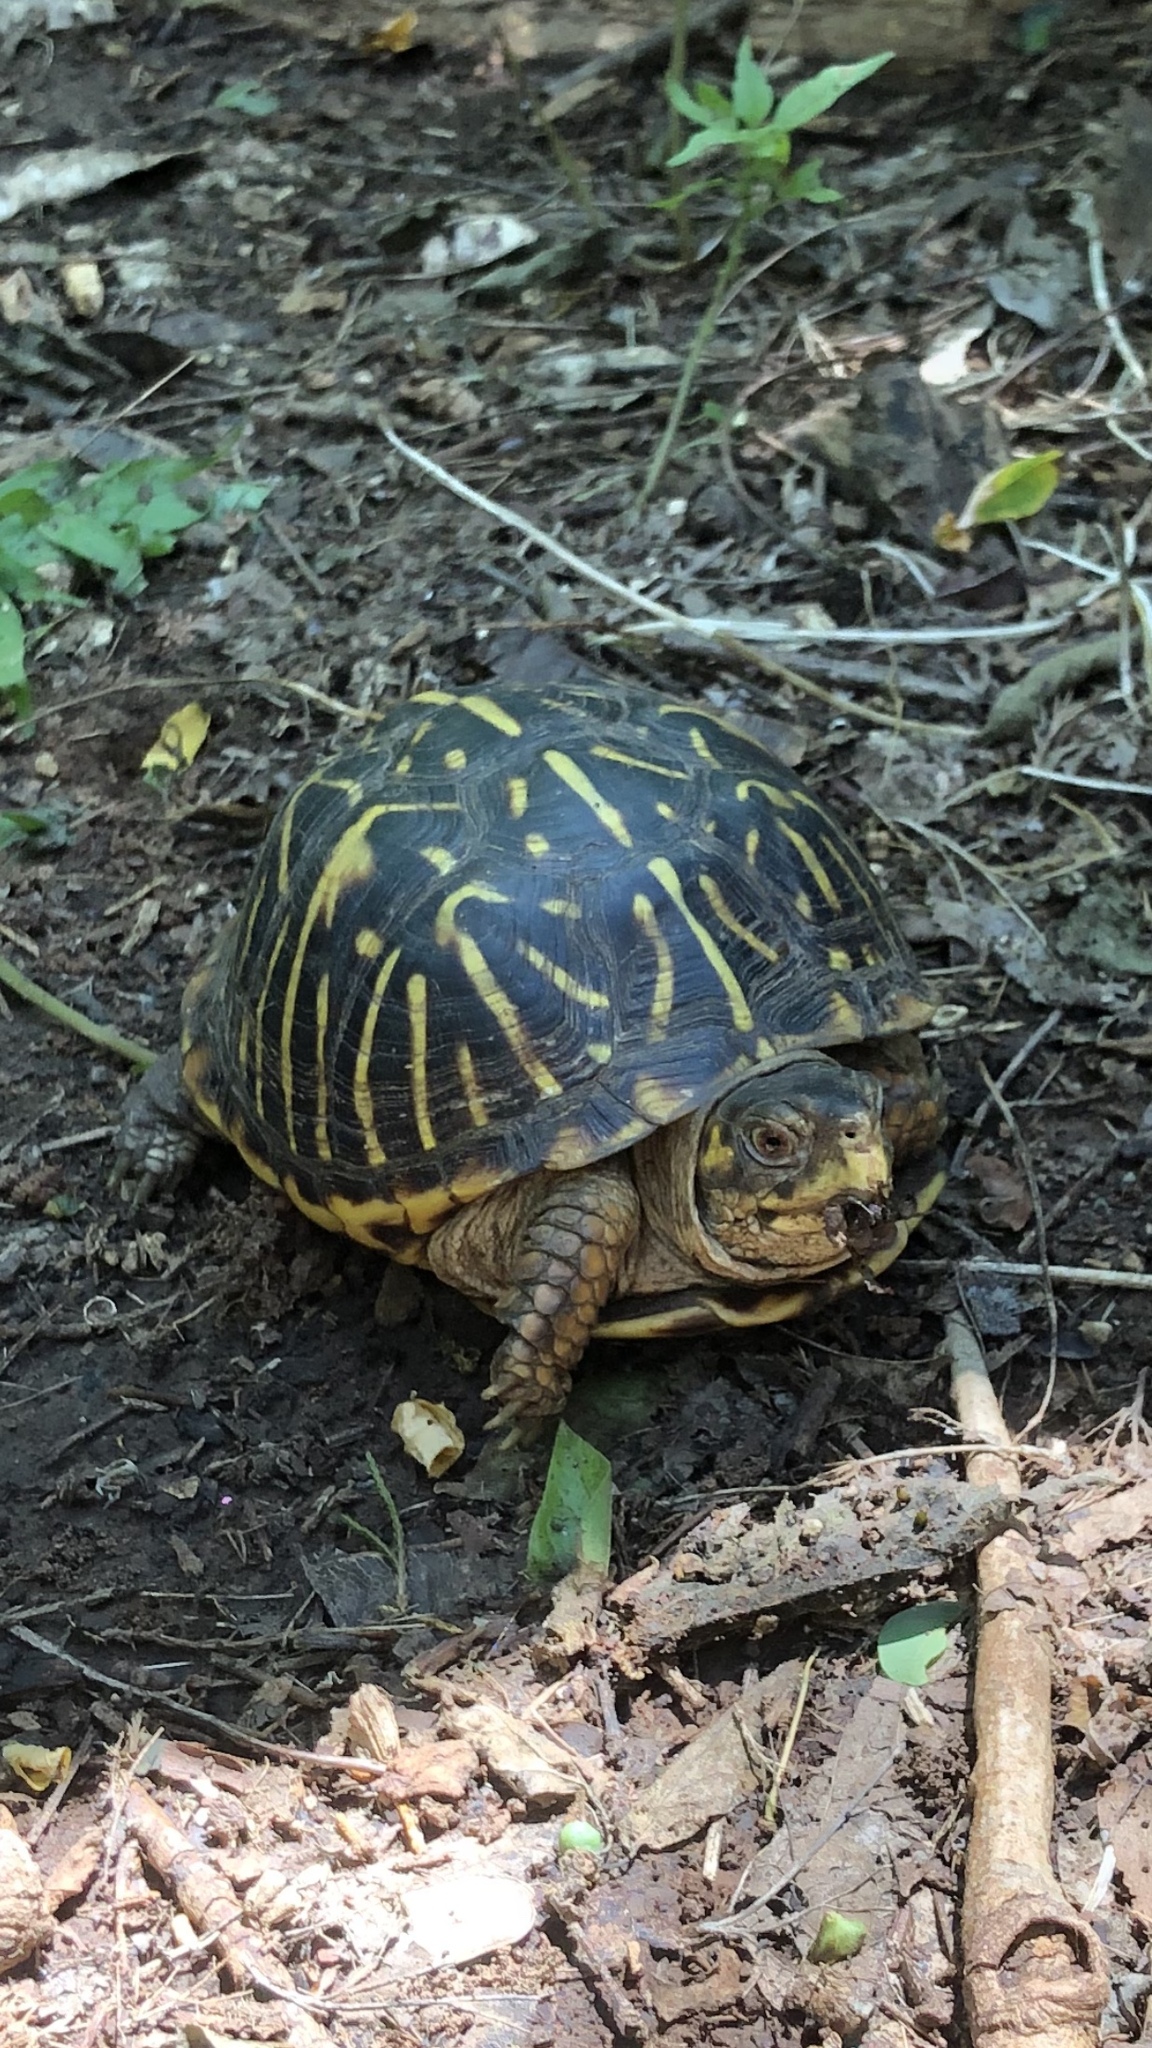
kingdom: Animalia
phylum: Chordata
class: Testudines
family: Emydidae
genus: Terrapene
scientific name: Terrapene ornata
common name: Western box turtle
